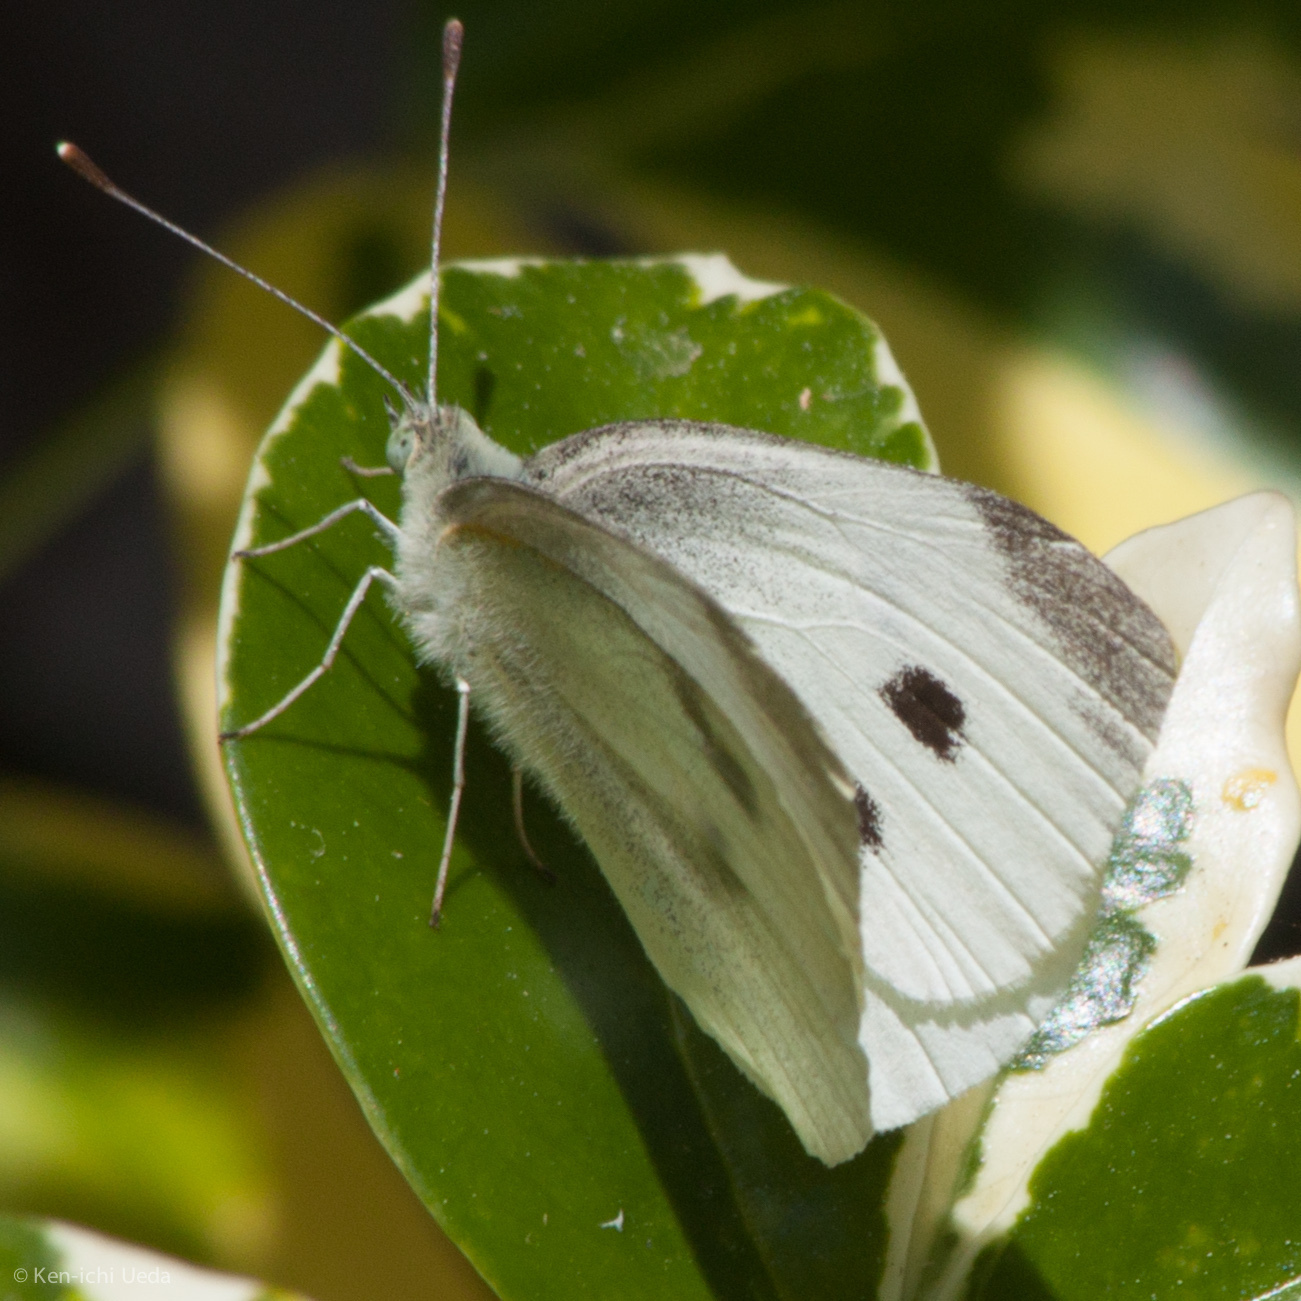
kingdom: Animalia
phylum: Arthropoda
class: Insecta
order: Lepidoptera
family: Pieridae
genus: Pieris
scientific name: Pieris rapae
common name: Small white
